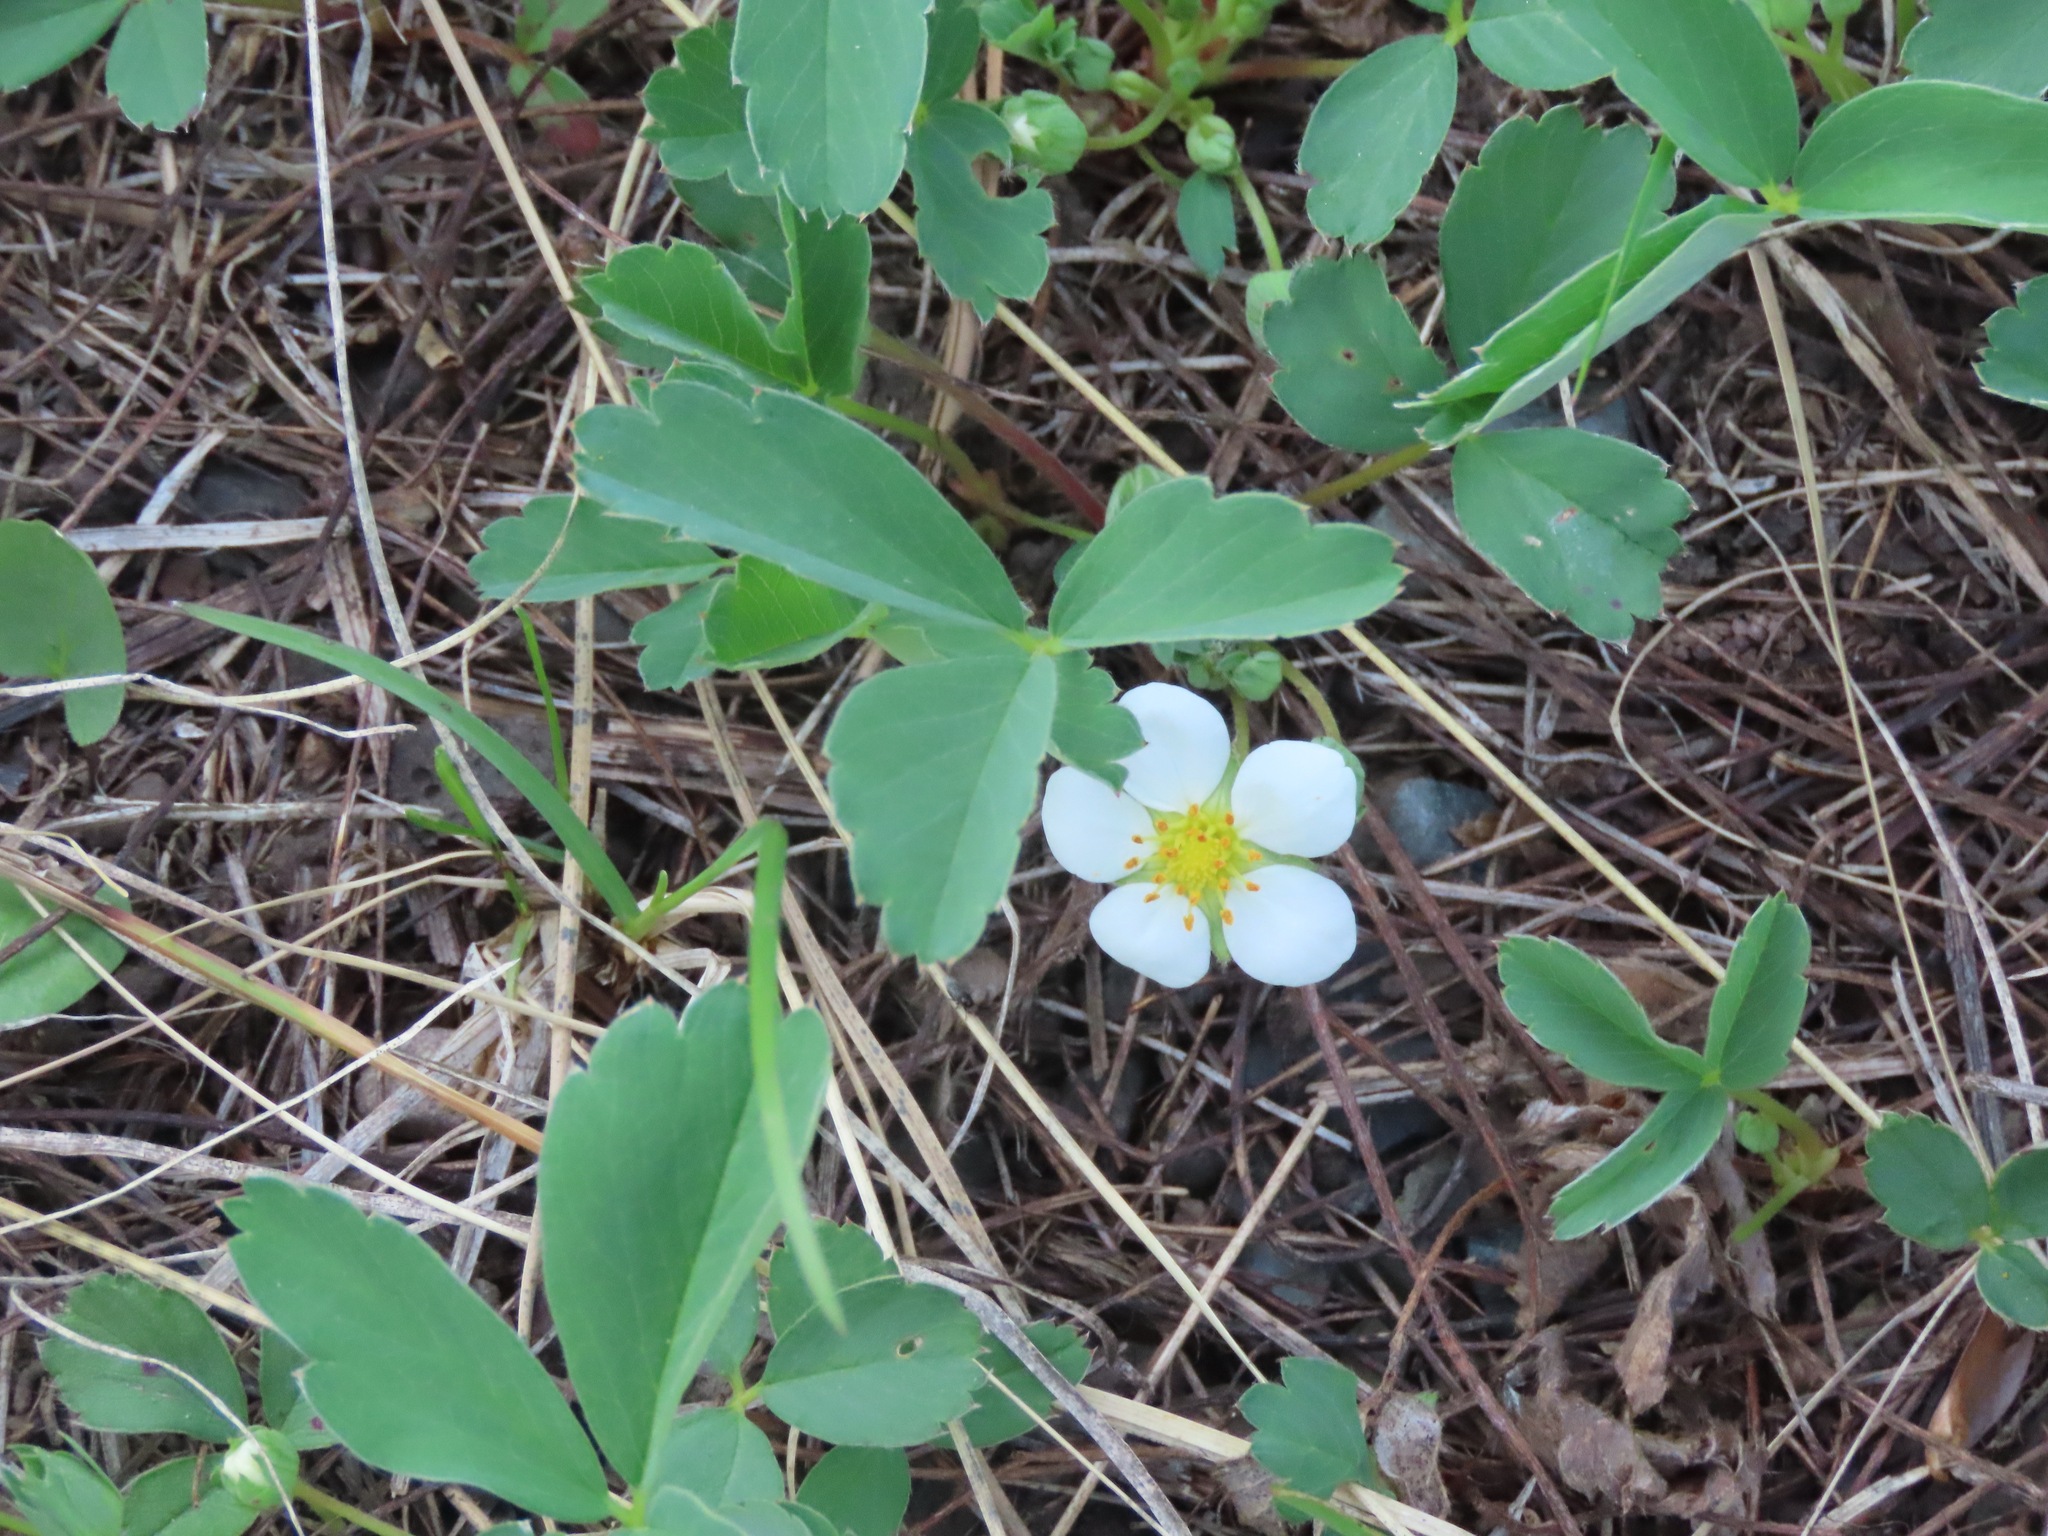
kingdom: Plantae
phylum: Tracheophyta
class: Magnoliopsida
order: Rosales
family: Rosaceae
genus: Fragaria
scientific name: Fragaria virginiana
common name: Thickleaved wild strawberry
